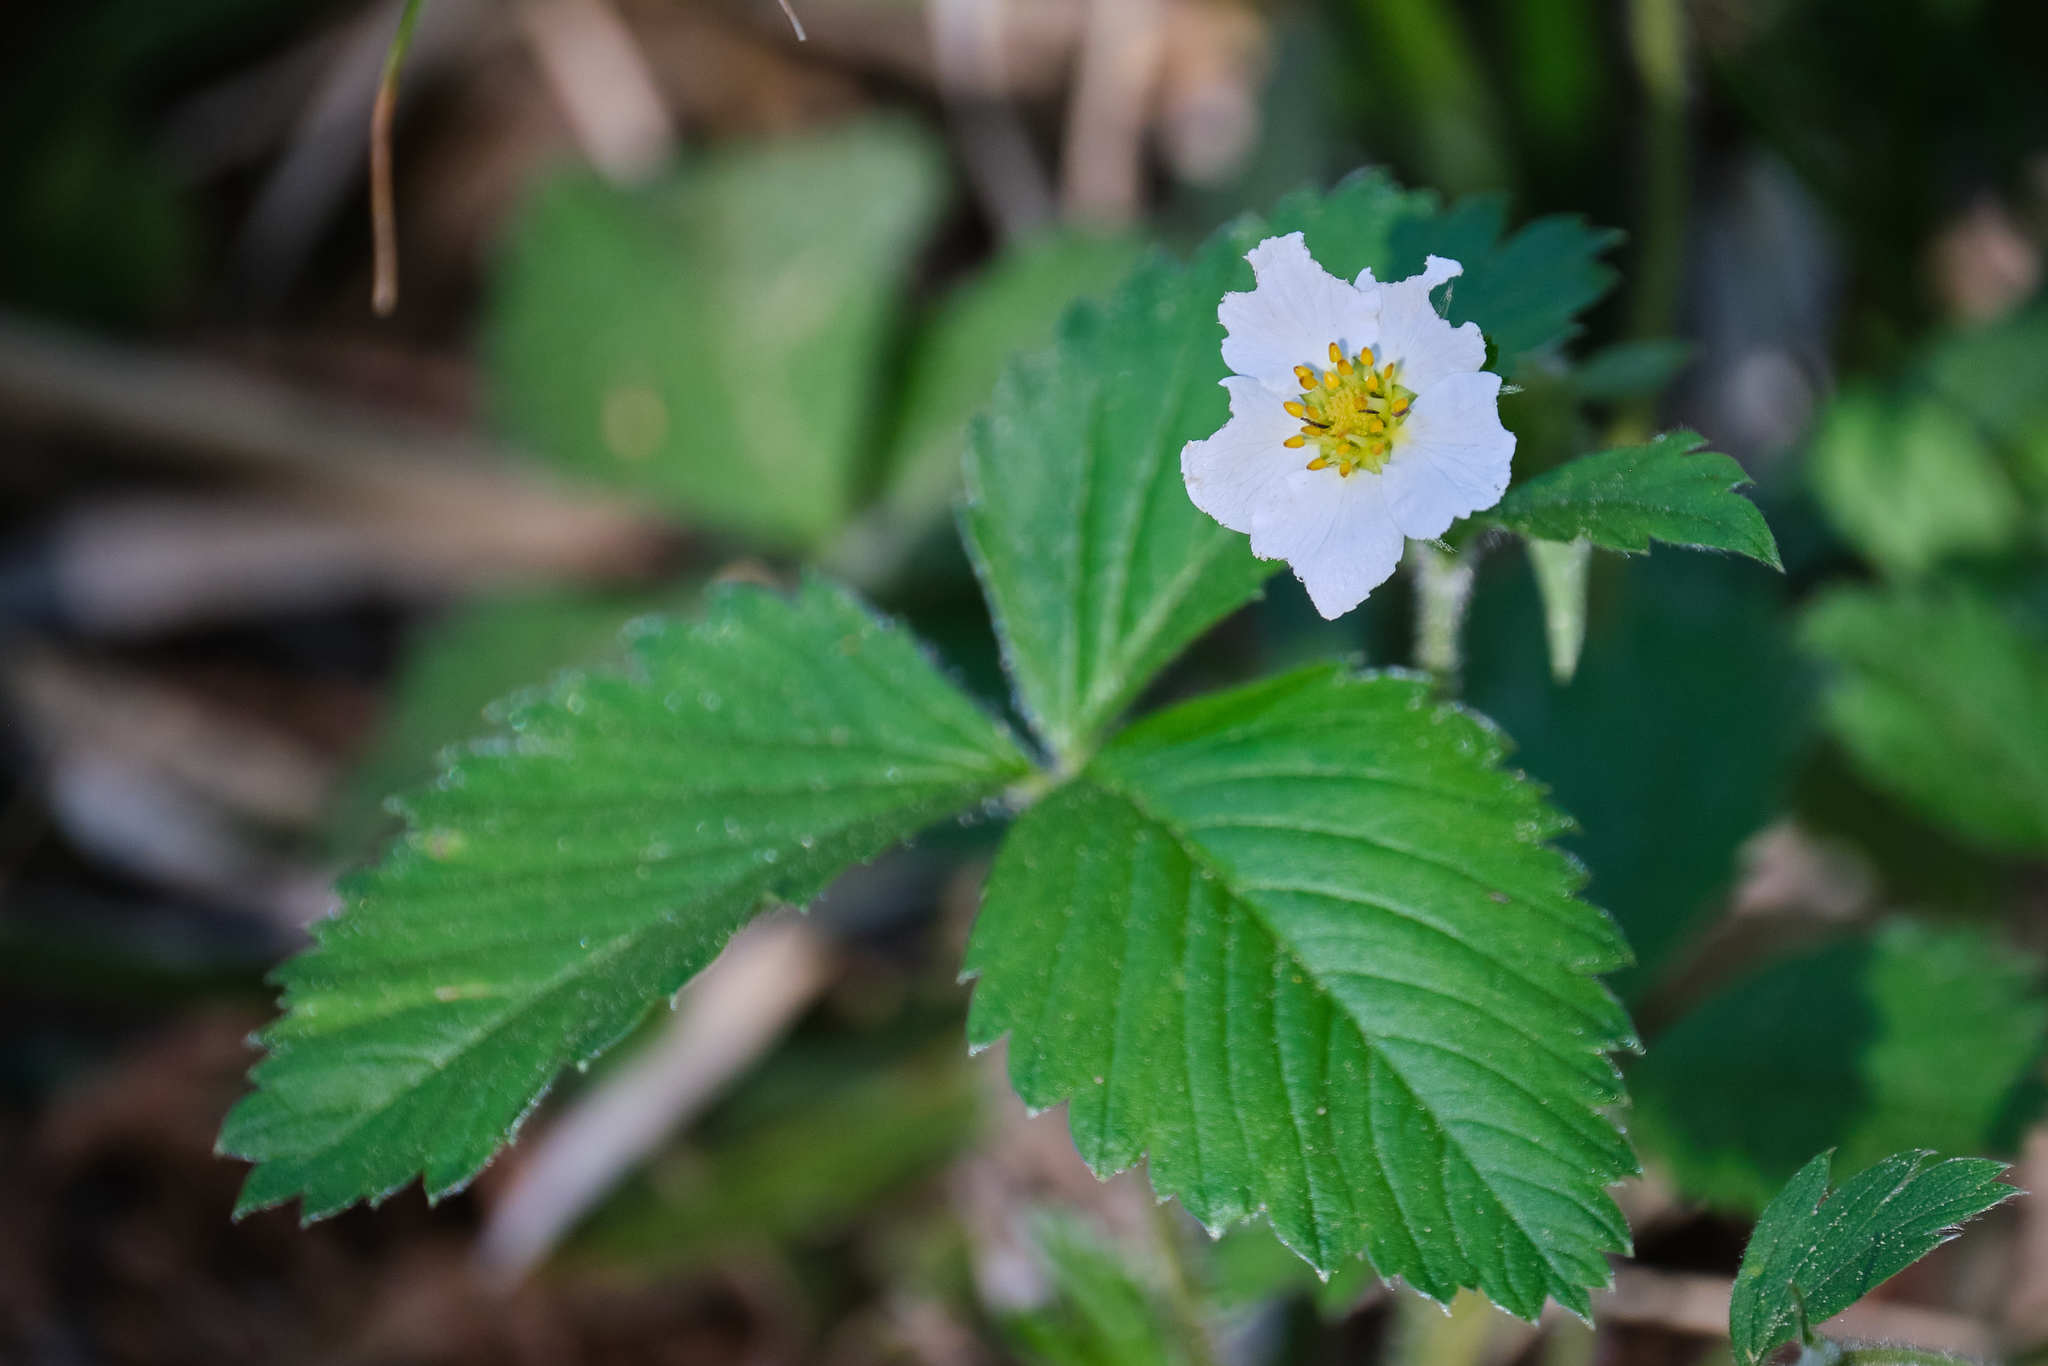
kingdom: Plantae
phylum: Tracheophyta
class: Magnoliopsida
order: Rosales
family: Rosaceae
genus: Fragaria
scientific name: Fragaria vesca
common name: Wild strawberry
